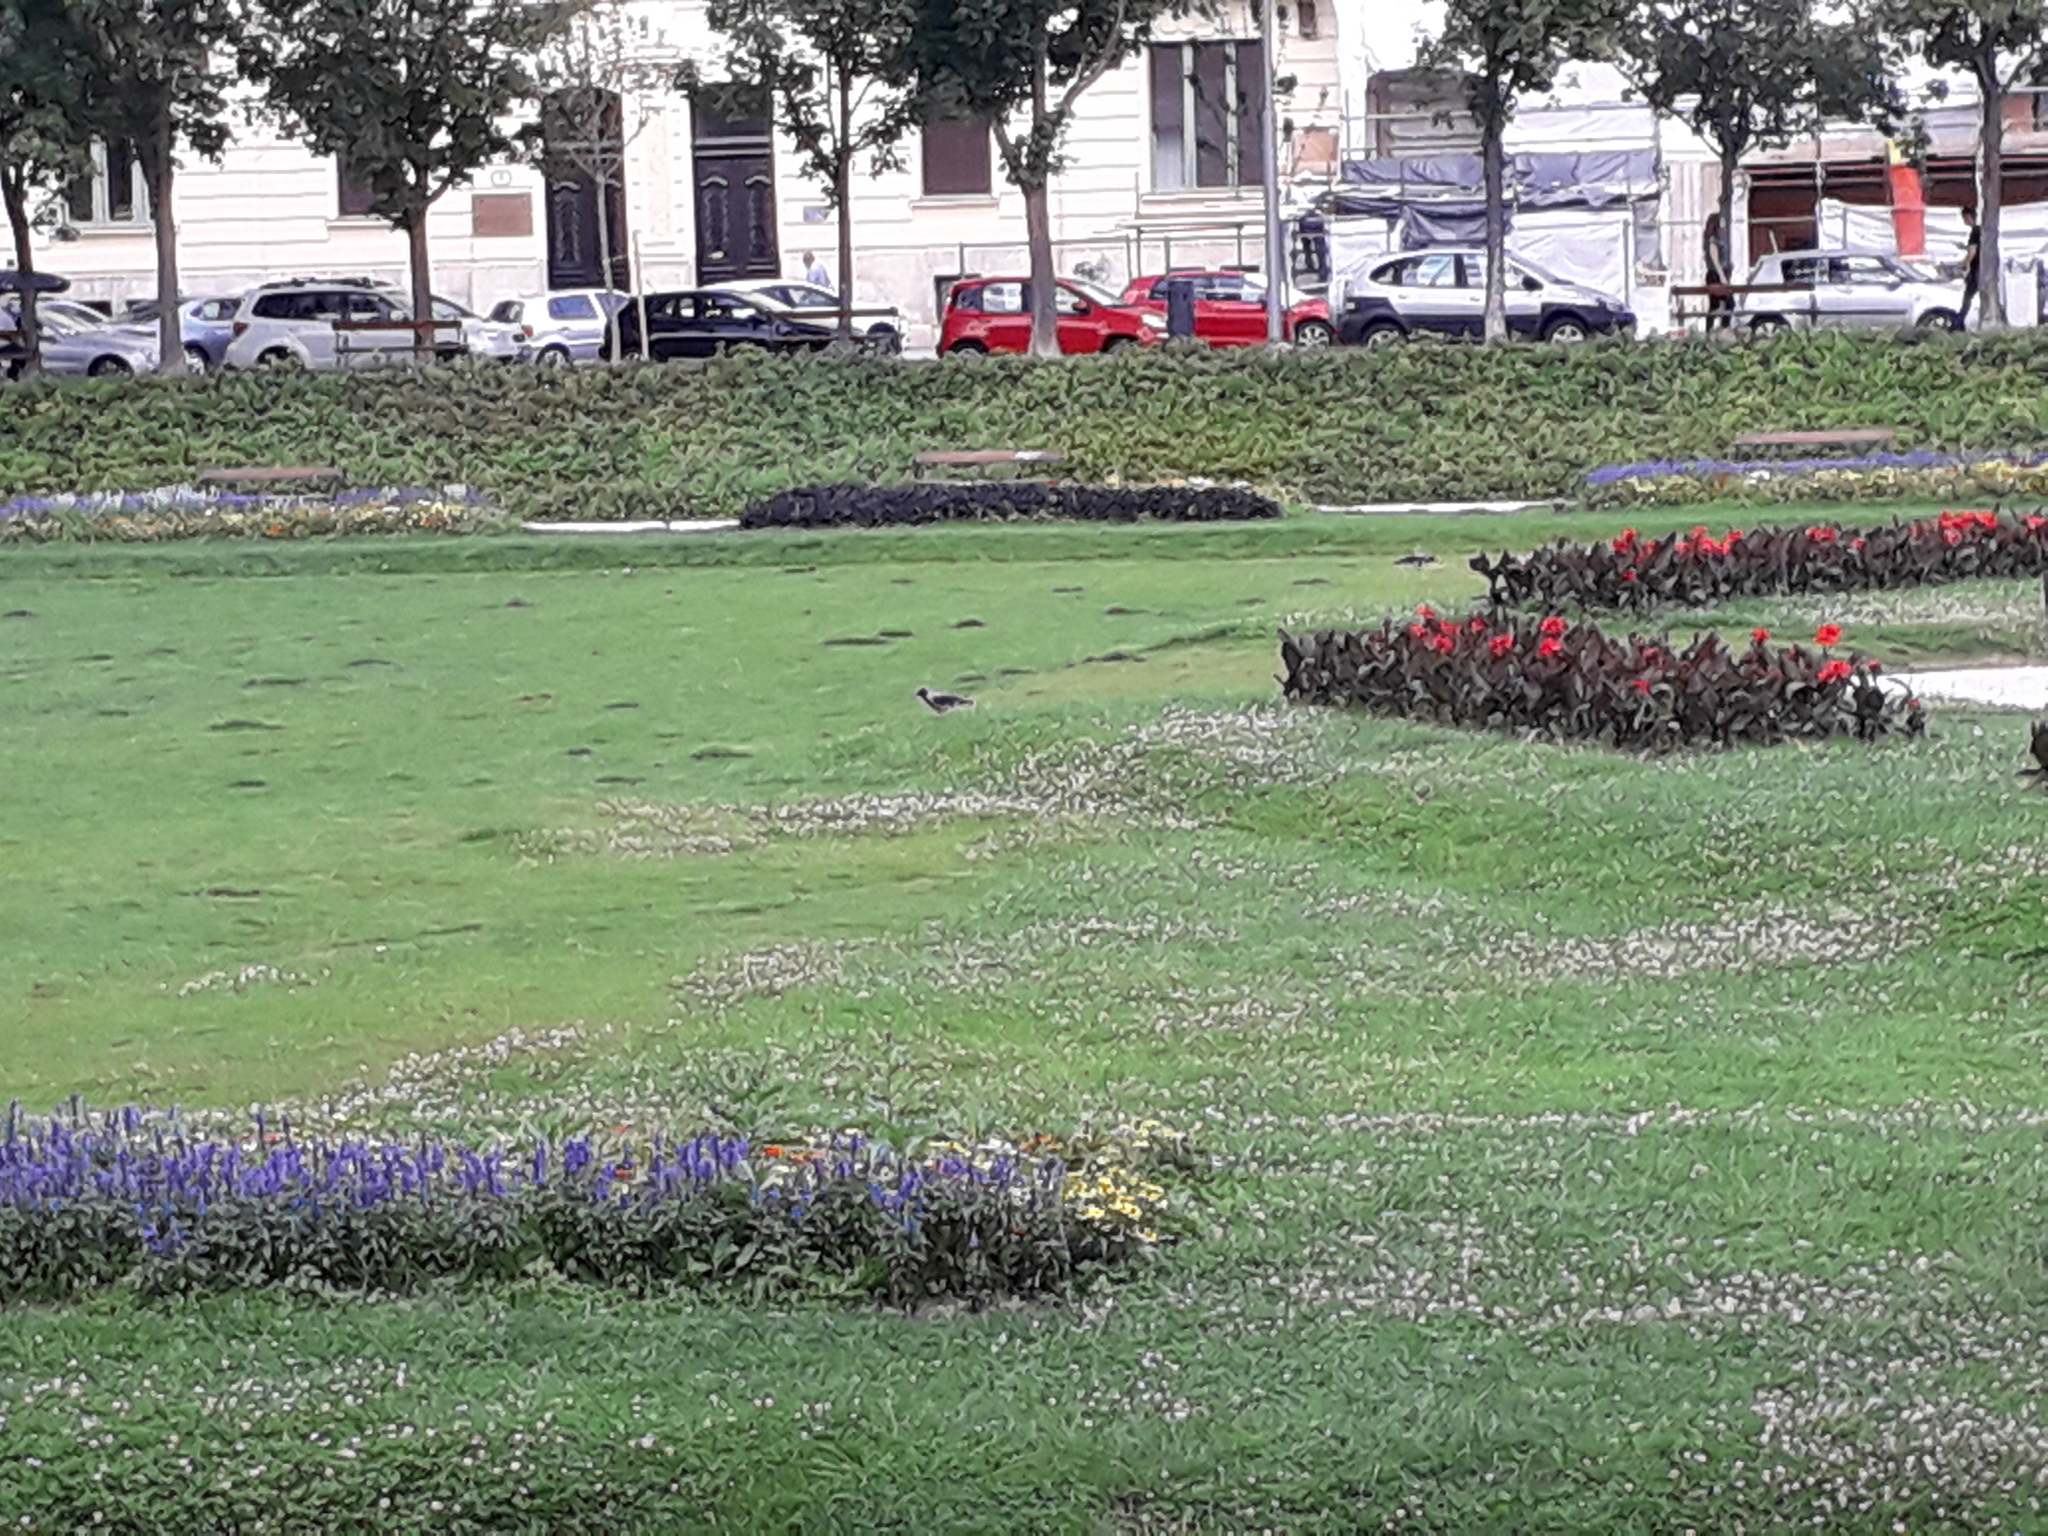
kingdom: Animalia
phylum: Chordata
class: Aves
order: Passeriformes
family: Corvidae
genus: Corvus
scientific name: Corvus cornix
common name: Hooded crow
